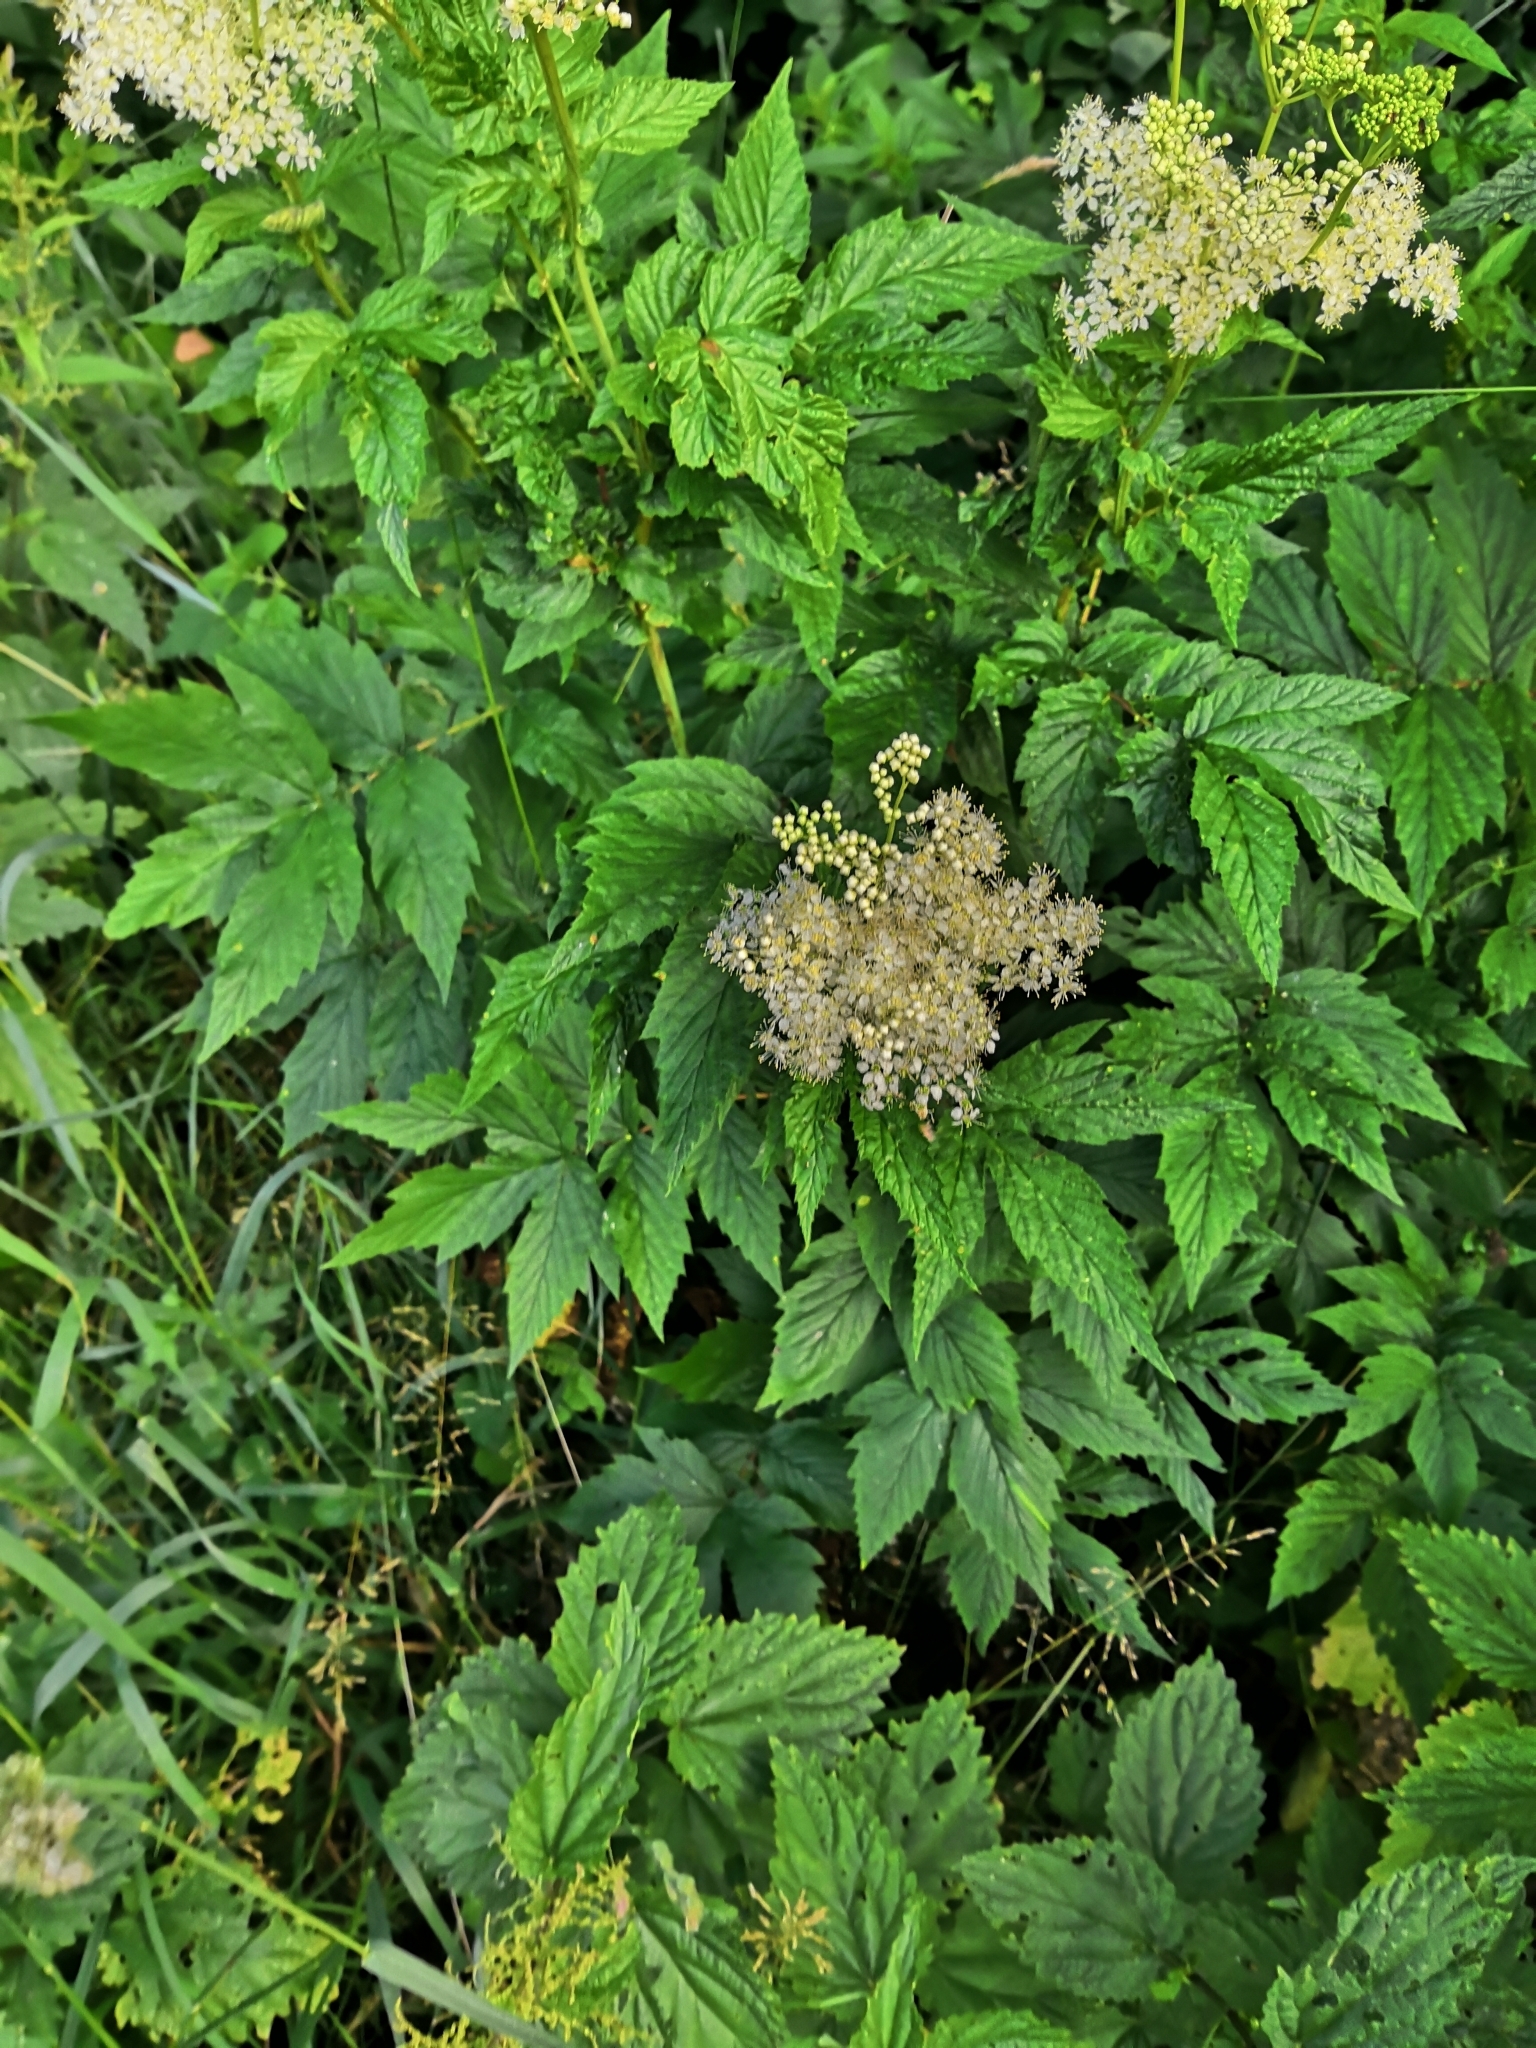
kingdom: Plantae
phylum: Tracheophyta
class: Magnoliopsida
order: Rosales
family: Rosaceae
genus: Filipendula
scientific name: Filipendula ulmaria
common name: Meadowsweet
